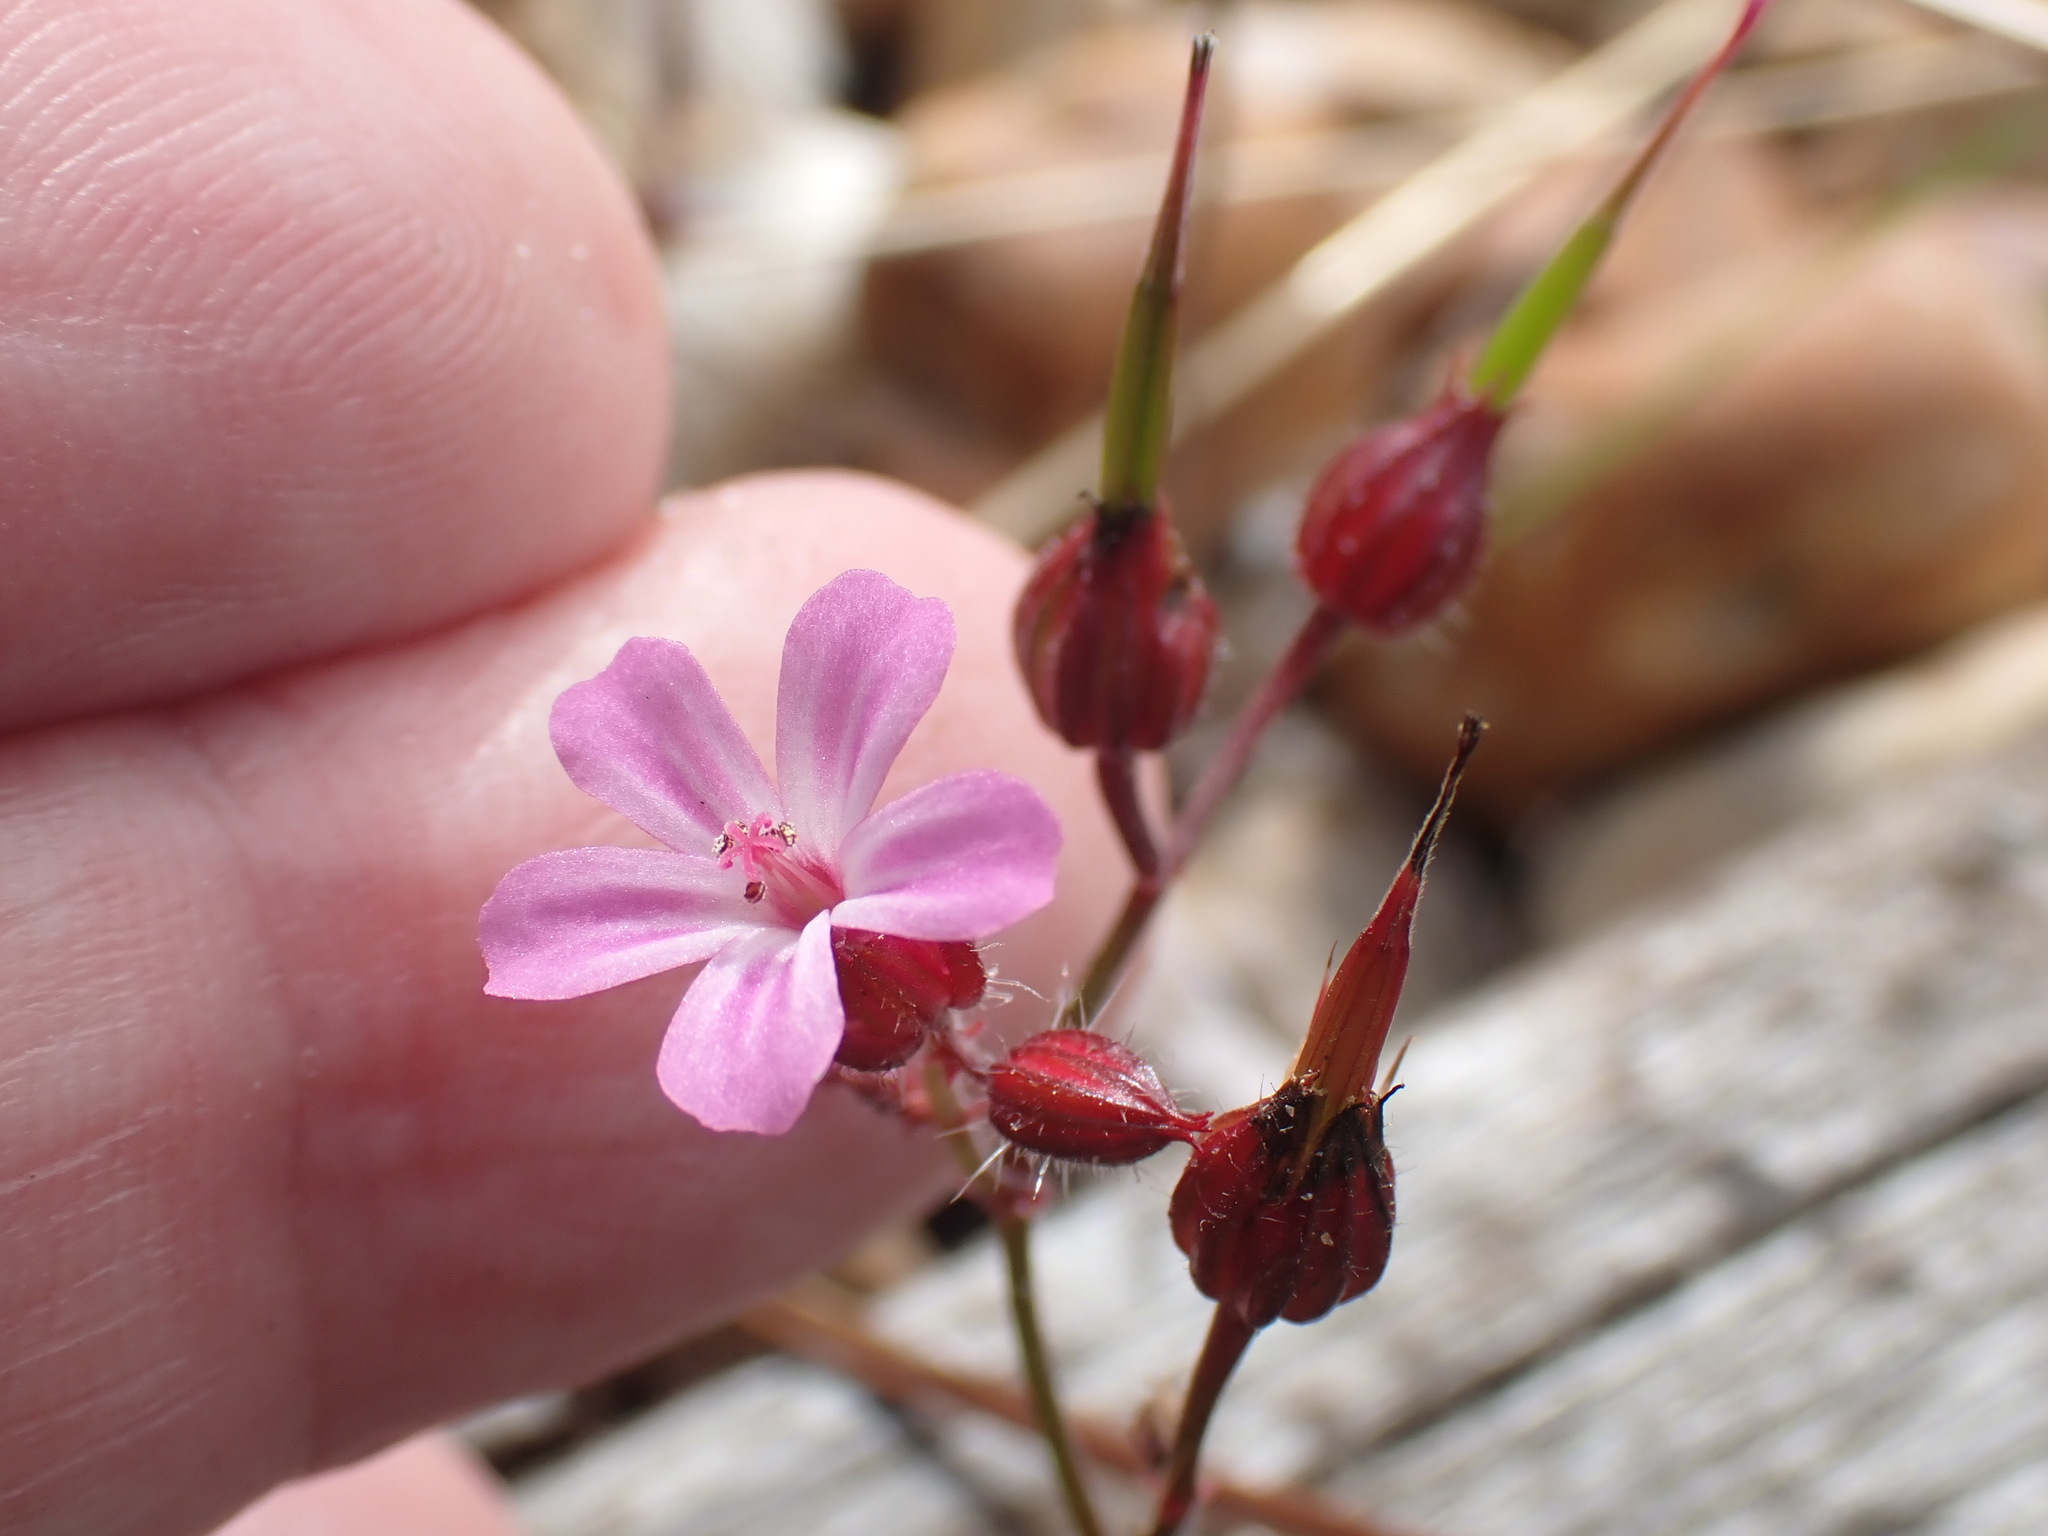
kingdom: Plantae
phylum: Tracheophyta
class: Magnoliopsida
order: Geraniales
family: Geraniaceae
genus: Geranium
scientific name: Geranium robertianum
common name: Herb-robert
